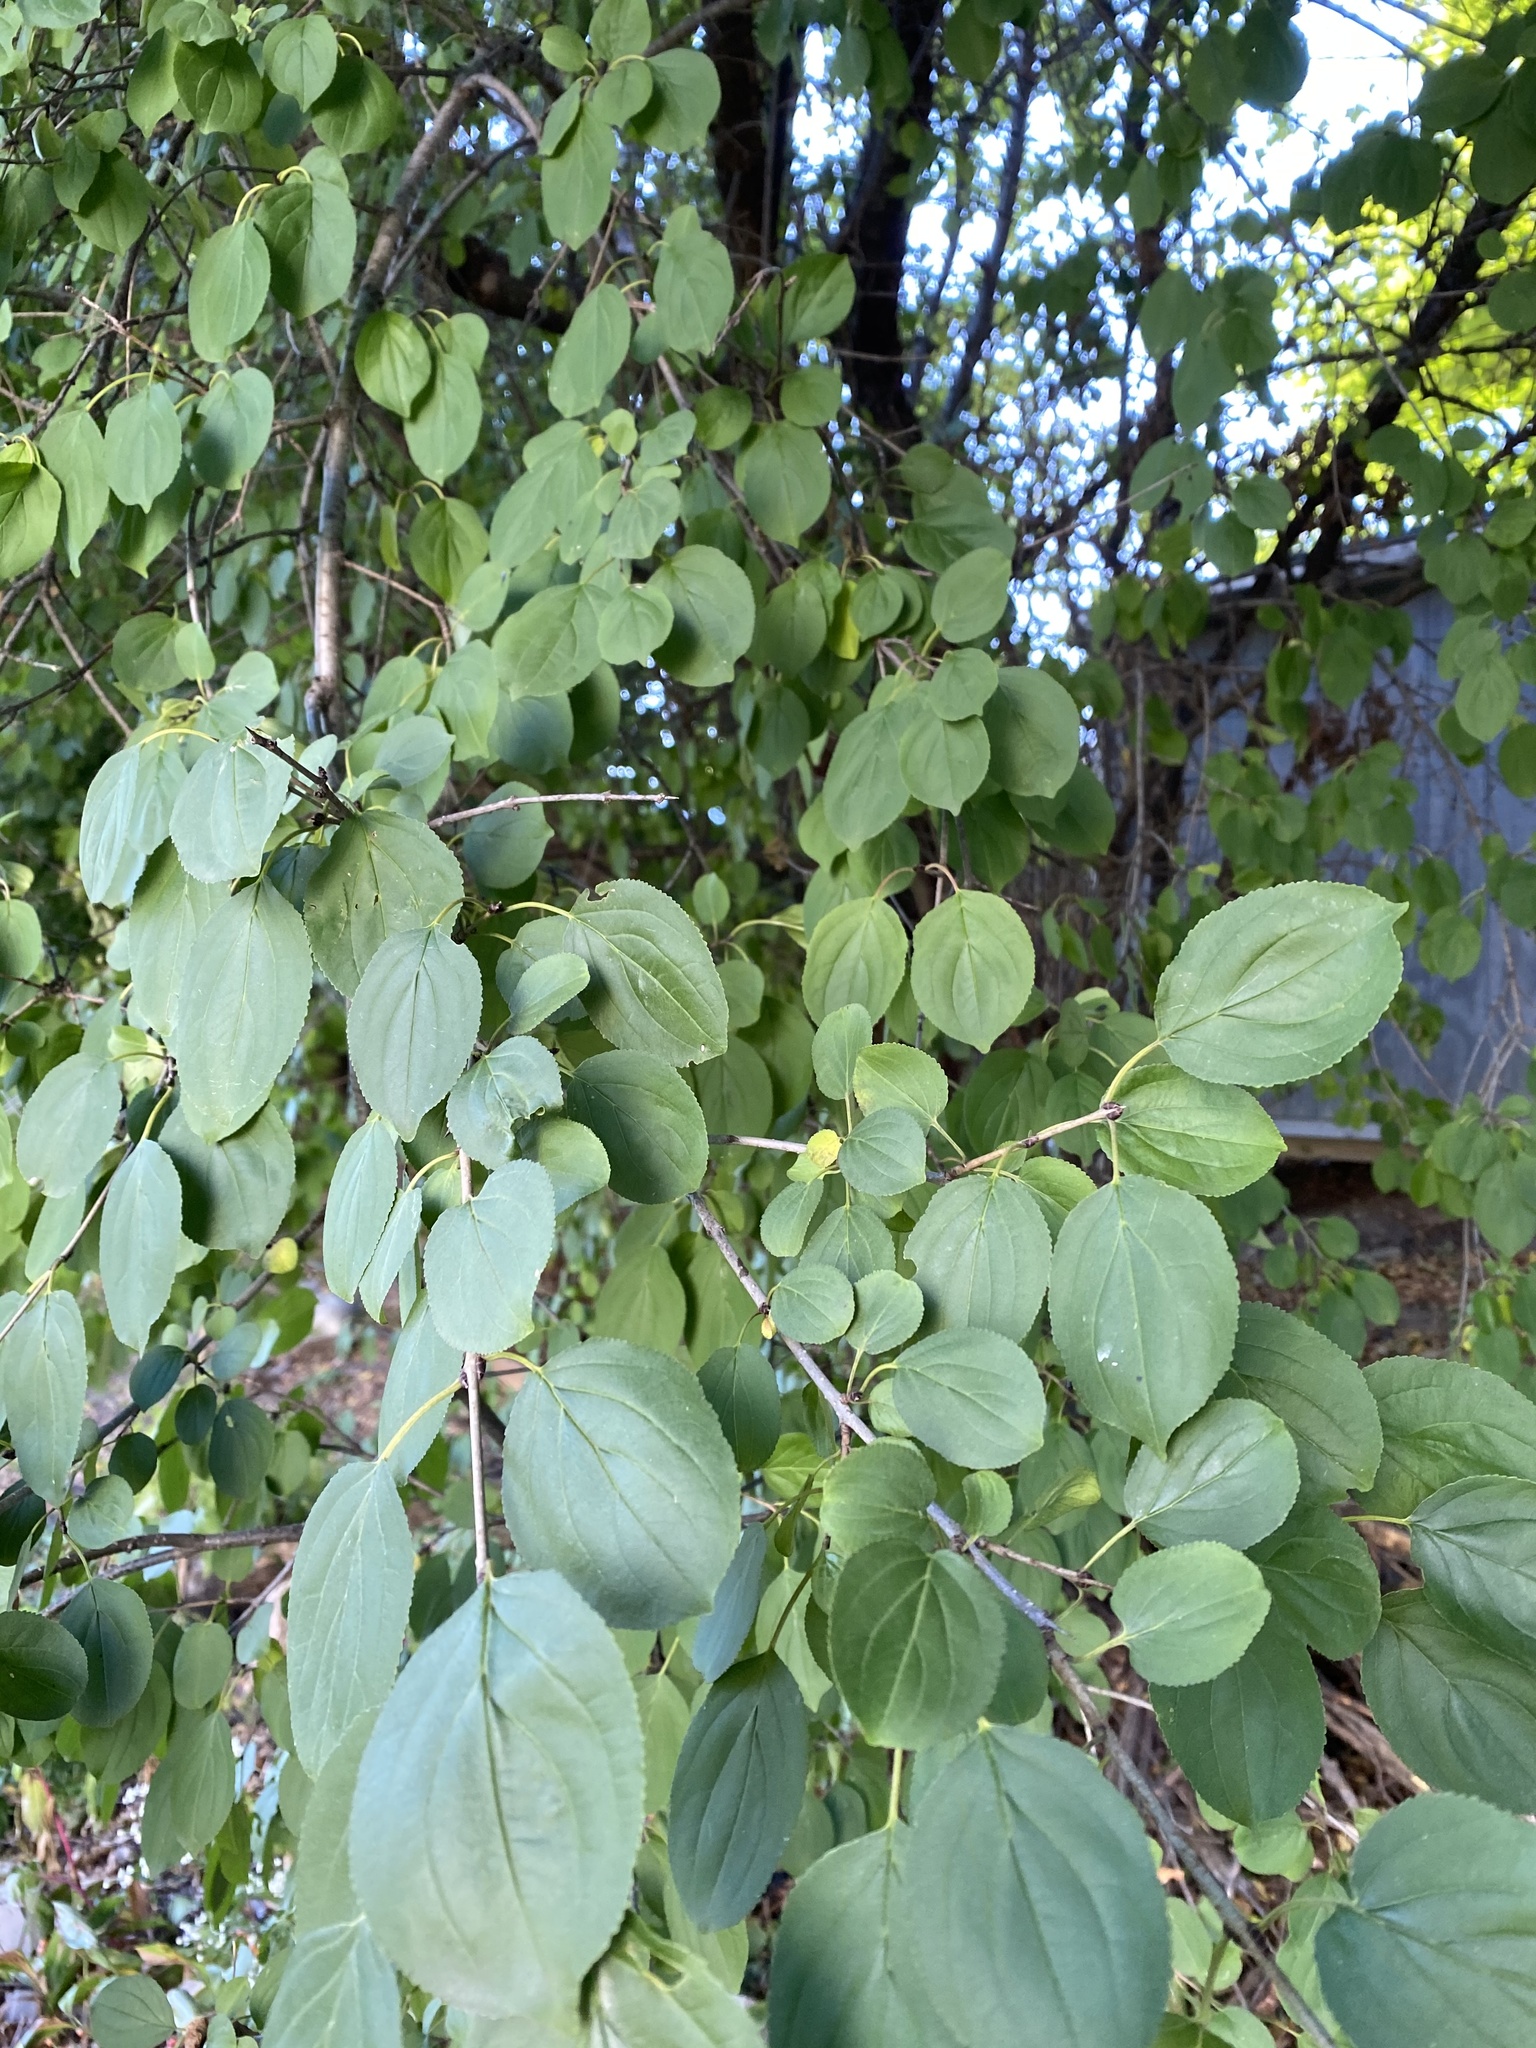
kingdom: Plantae
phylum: Tracheophyta
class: Magnoliopsida
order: Rosales
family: Rhamnaceae
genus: Rhamnus
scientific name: Rhamnus cathartica
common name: Common buckthorn
